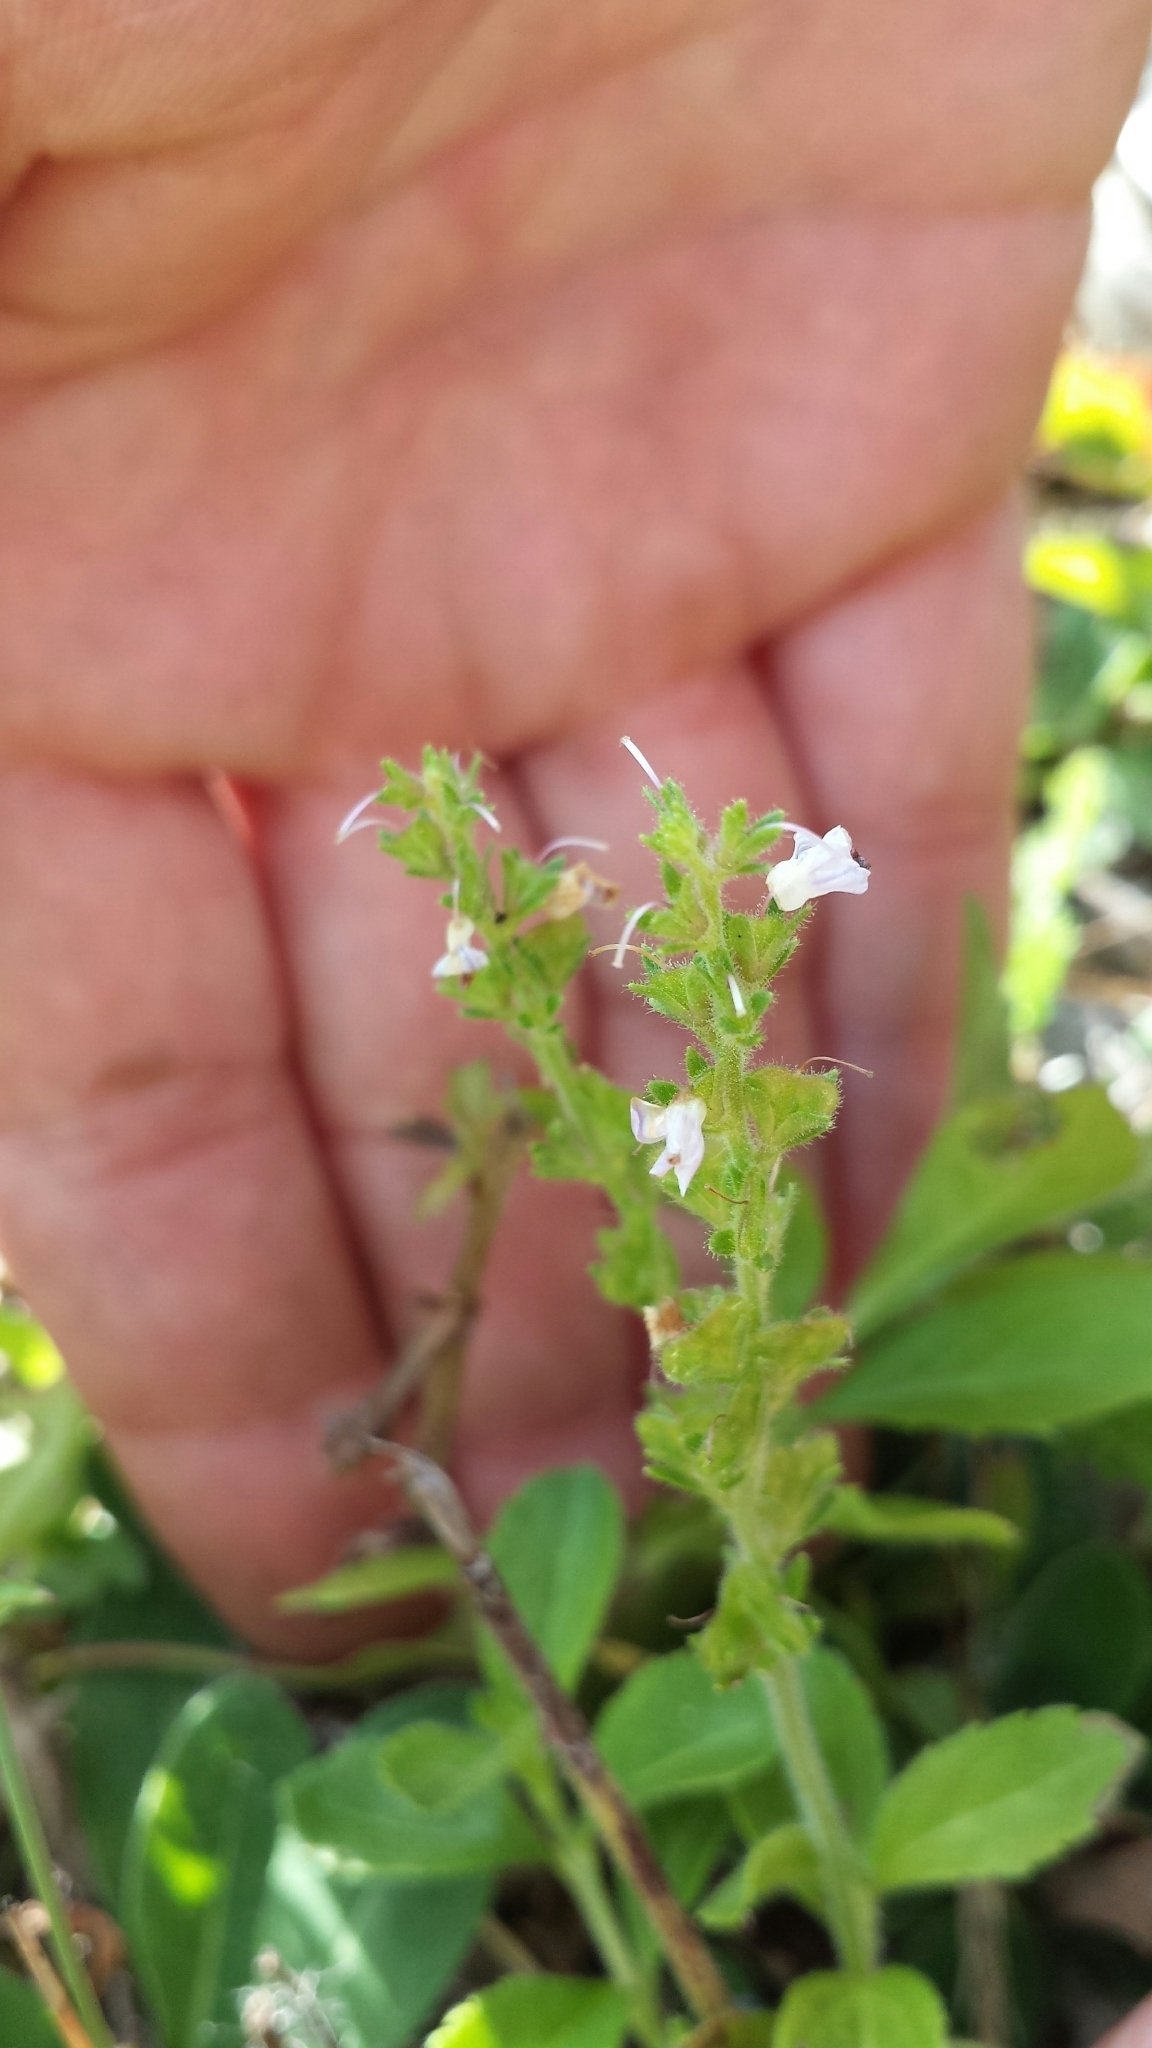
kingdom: Plantae
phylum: Tracheophyta
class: Magnoliopsida
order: Lamiales
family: Plantaginaceae
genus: Veronica
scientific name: Veronica officinalis
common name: Common speedwell
